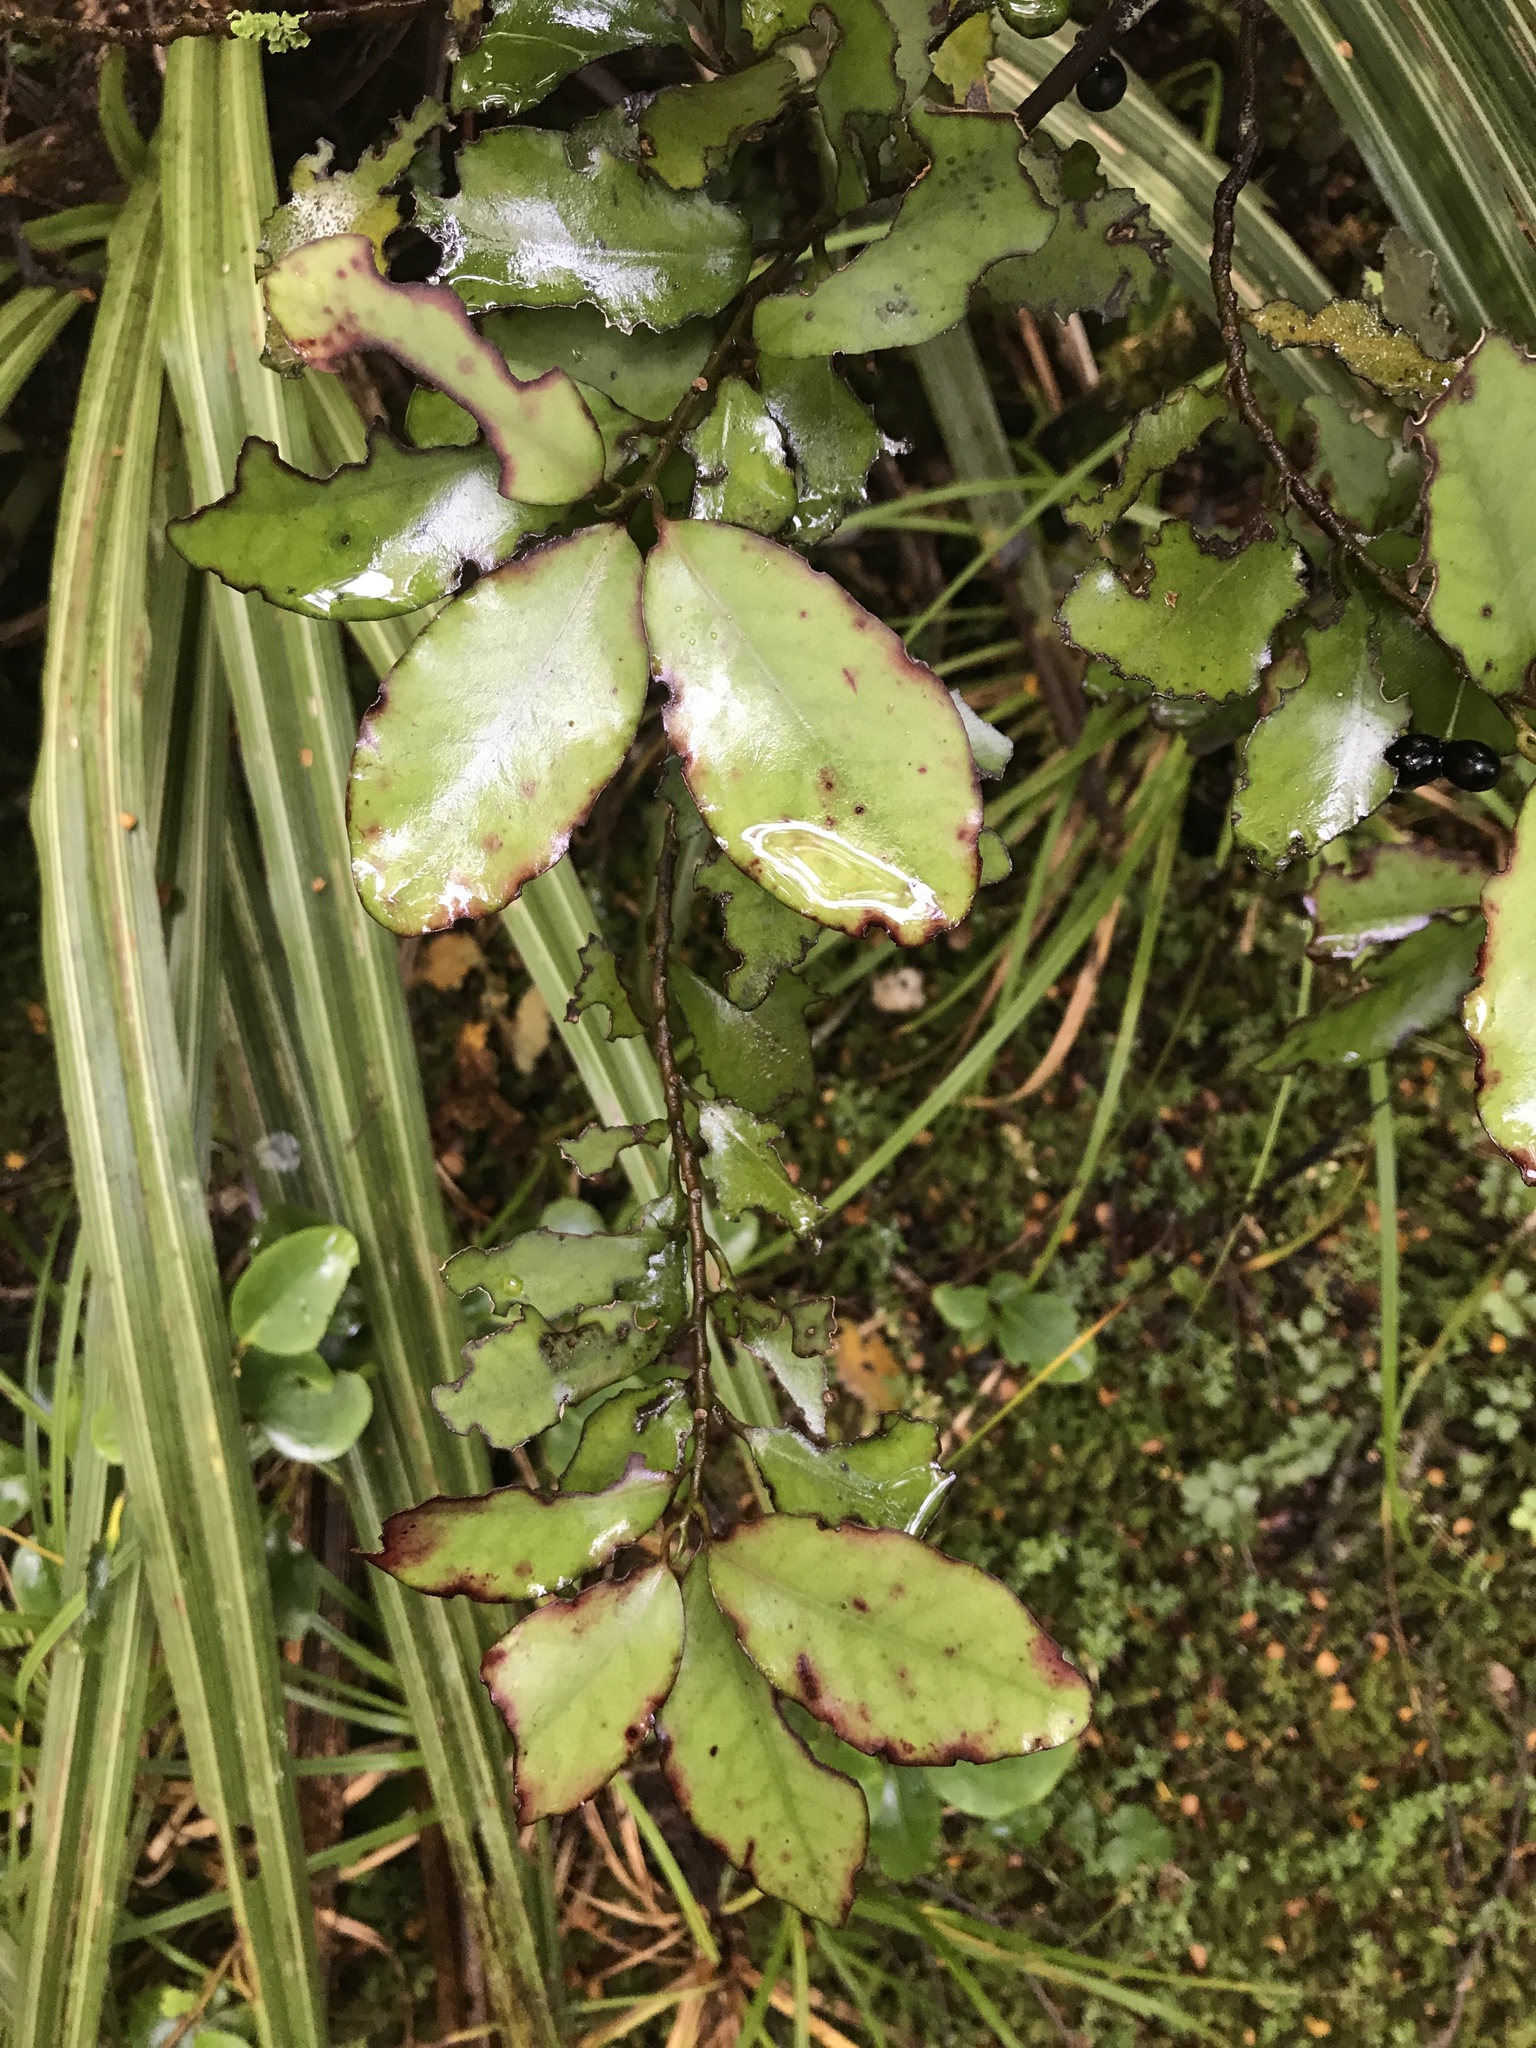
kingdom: Plantae
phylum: Tracheophyta
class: Magnoliopsida
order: Canellales
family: Winteraceae
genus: Pseudowintera
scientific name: Pseudowintera colorata
